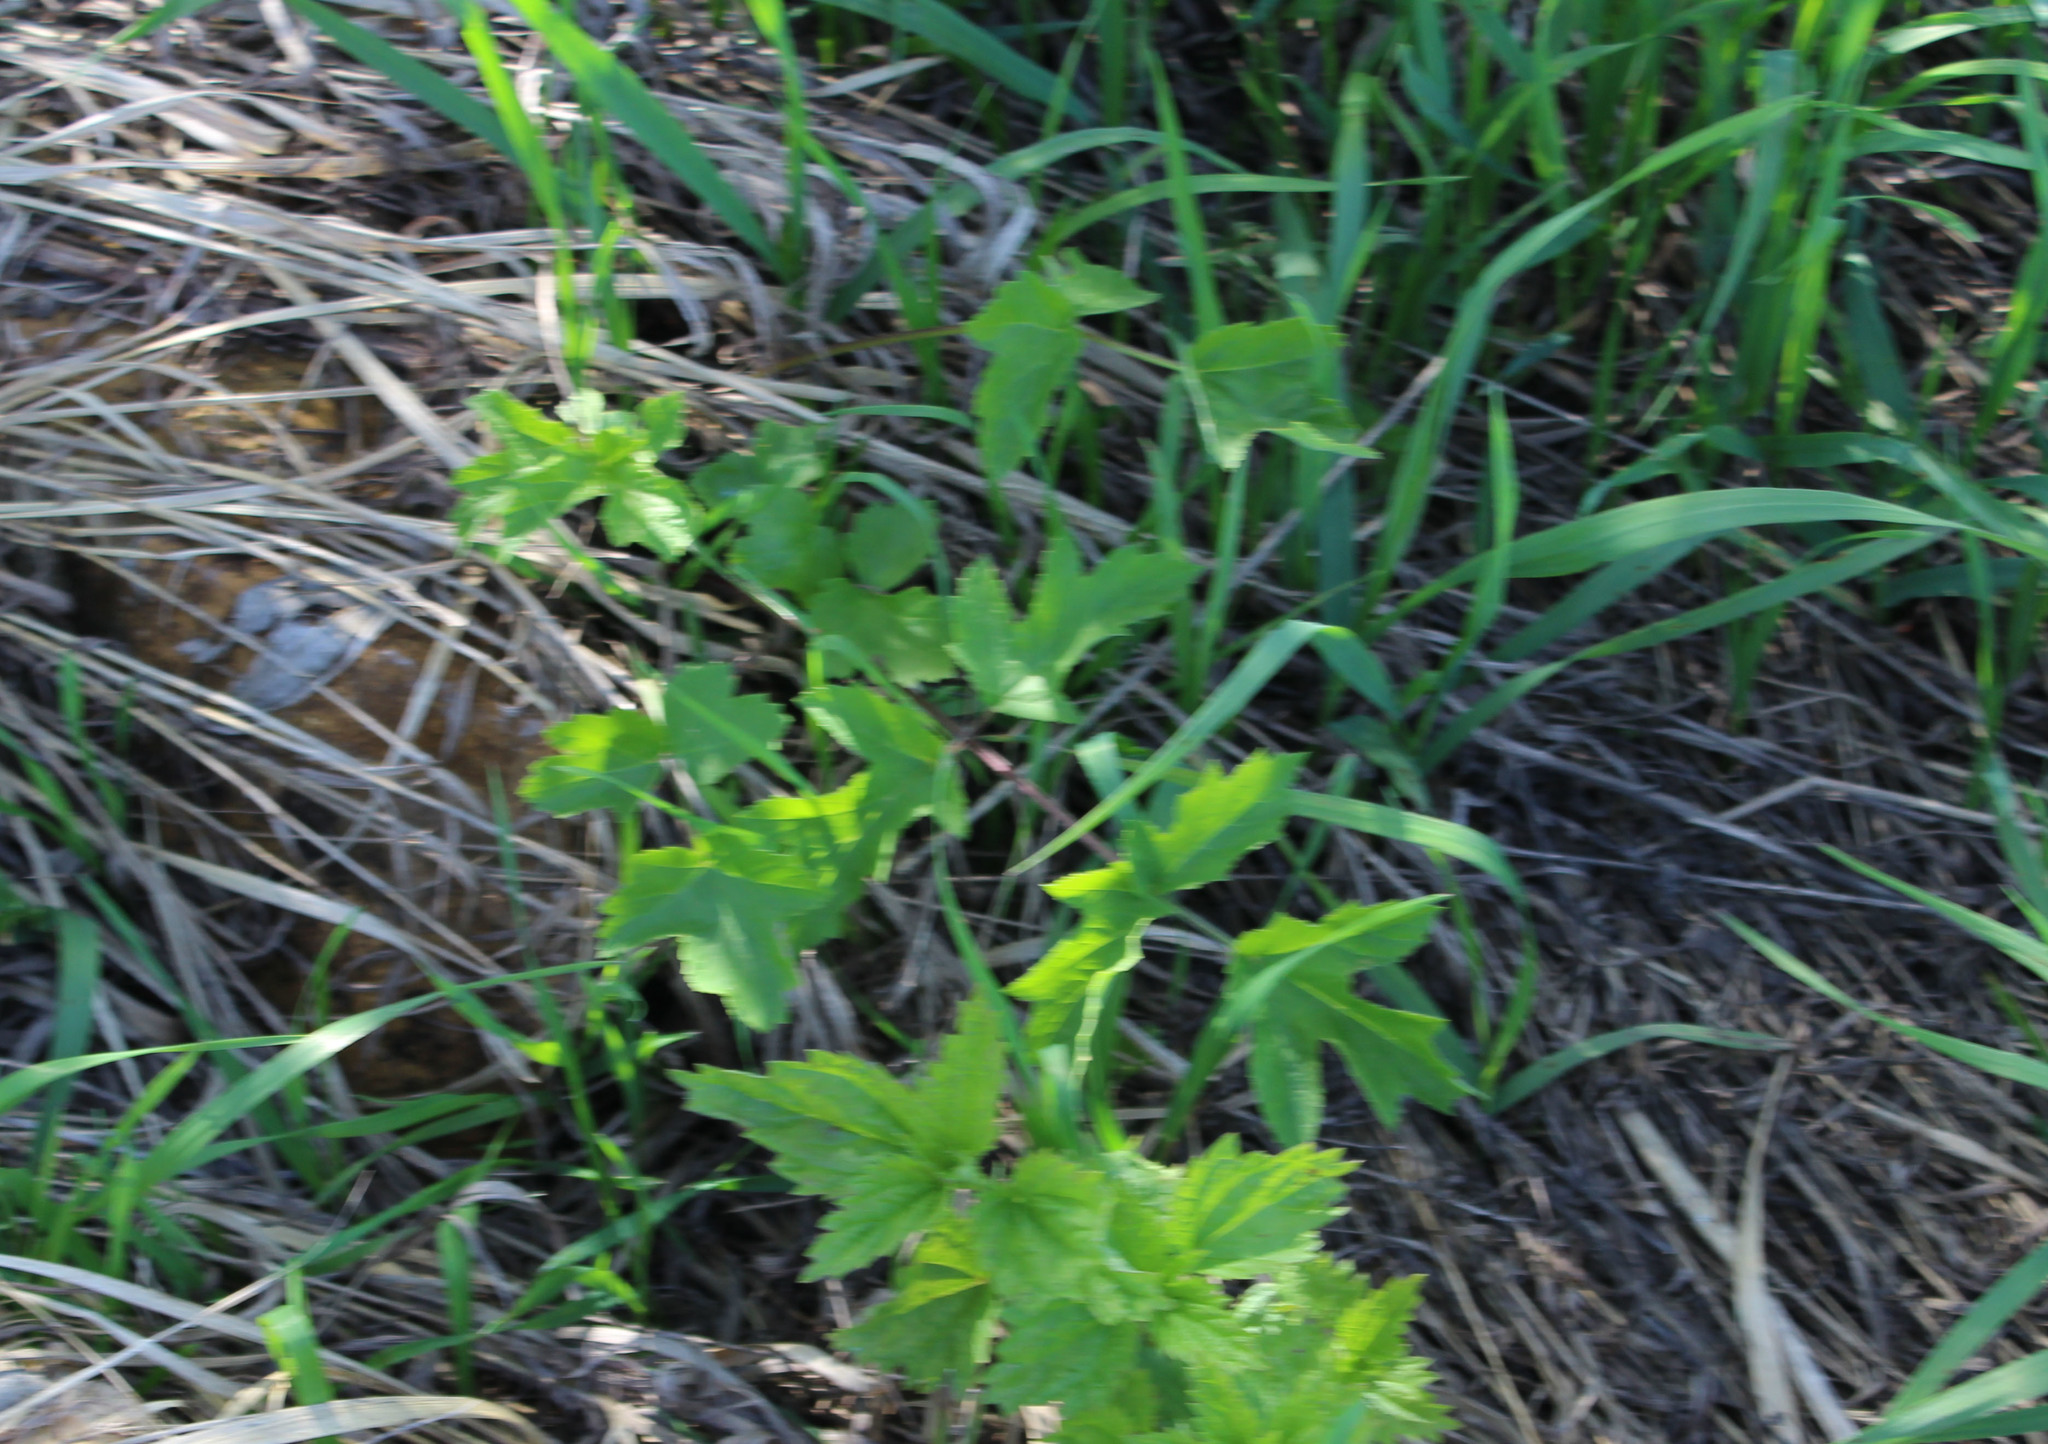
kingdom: Plantae
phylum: Tracheophyta
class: Magnoliopsida
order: Apiales
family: Apiaceae
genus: Heracleum
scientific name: Heracleum sphondylium
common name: Hogweed
